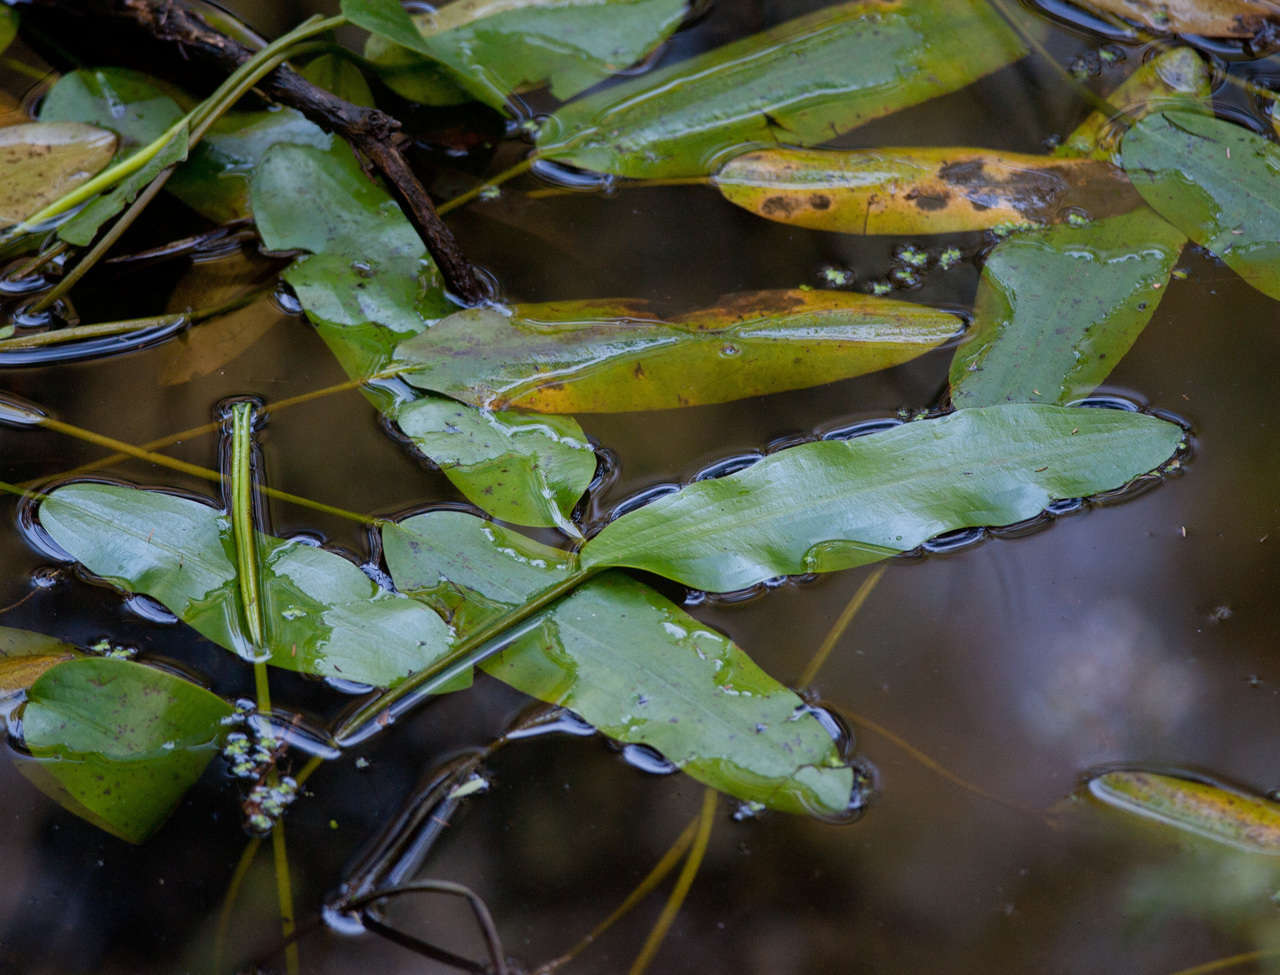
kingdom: Plantae
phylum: Tracheophyta
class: Liliopsida
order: Alismatales
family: Potamogetonaceae
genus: Potamogeton
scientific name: Potamogeton tricarinatus
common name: Pondweed
